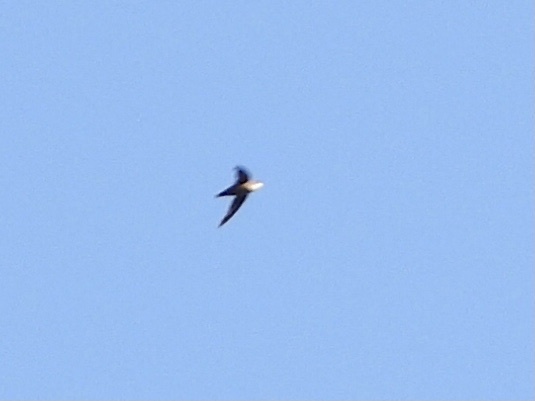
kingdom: Animalia
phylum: Chordata
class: Aves
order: Apodiformes
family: Apodidae
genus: Chaetura
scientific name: Chaetura vauxi
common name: Vaux's swift
